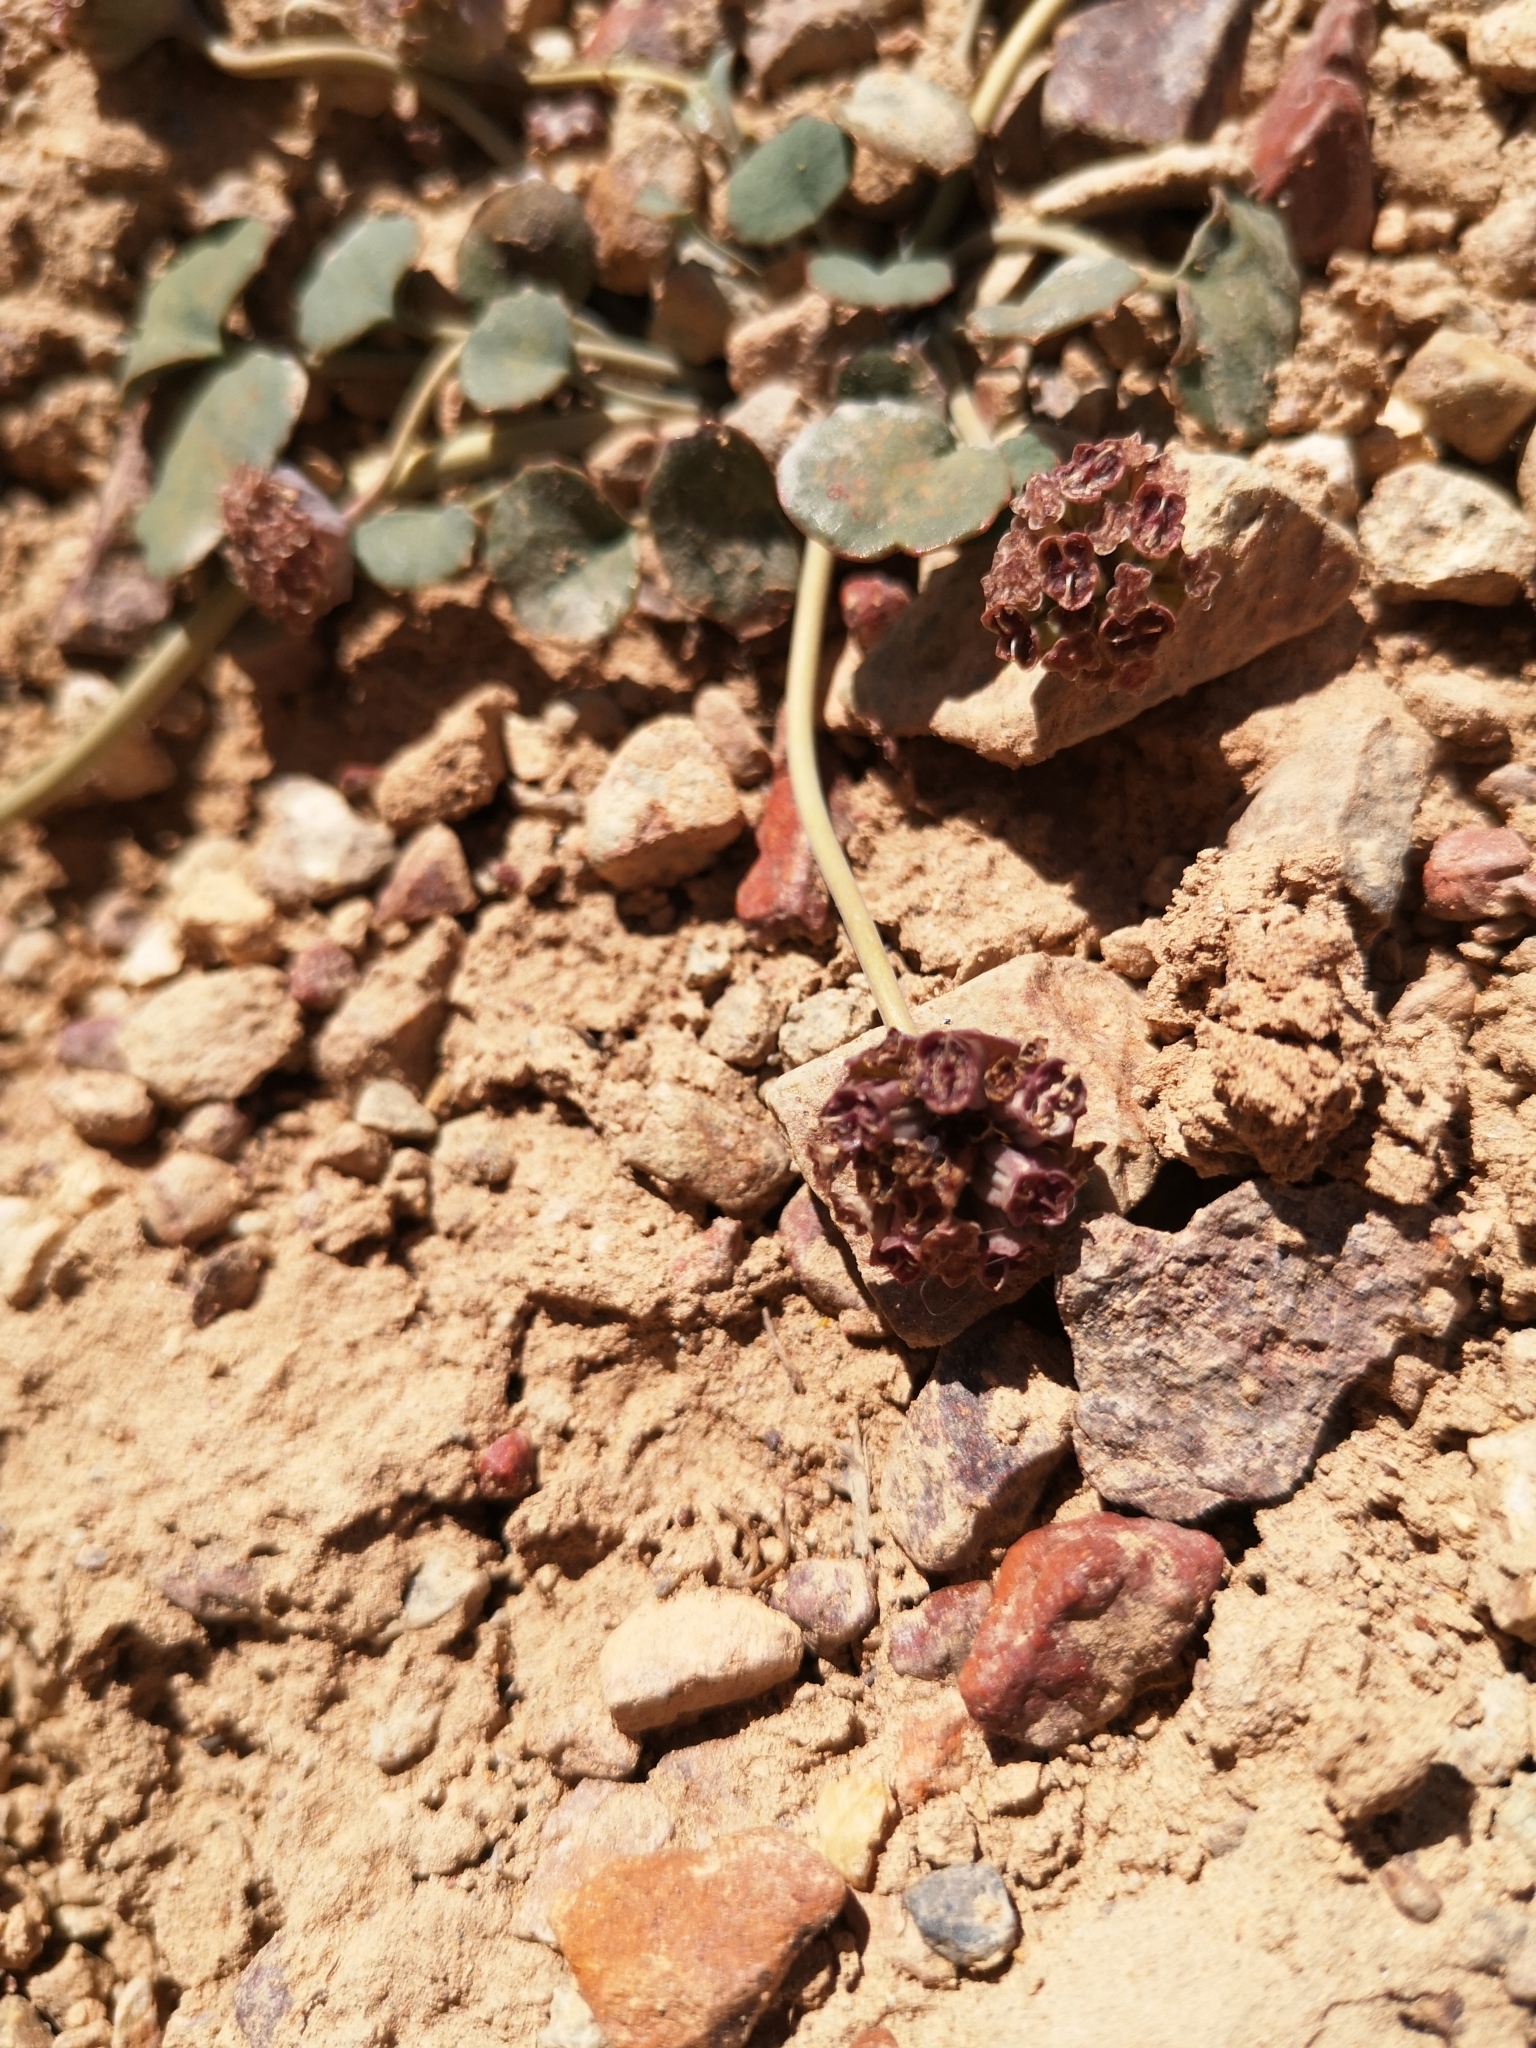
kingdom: Plantae
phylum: Tracheophyta
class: Magnoliopsida
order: Apiales
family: Apiaceae
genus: Pozoa
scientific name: Pozoa coriacea
